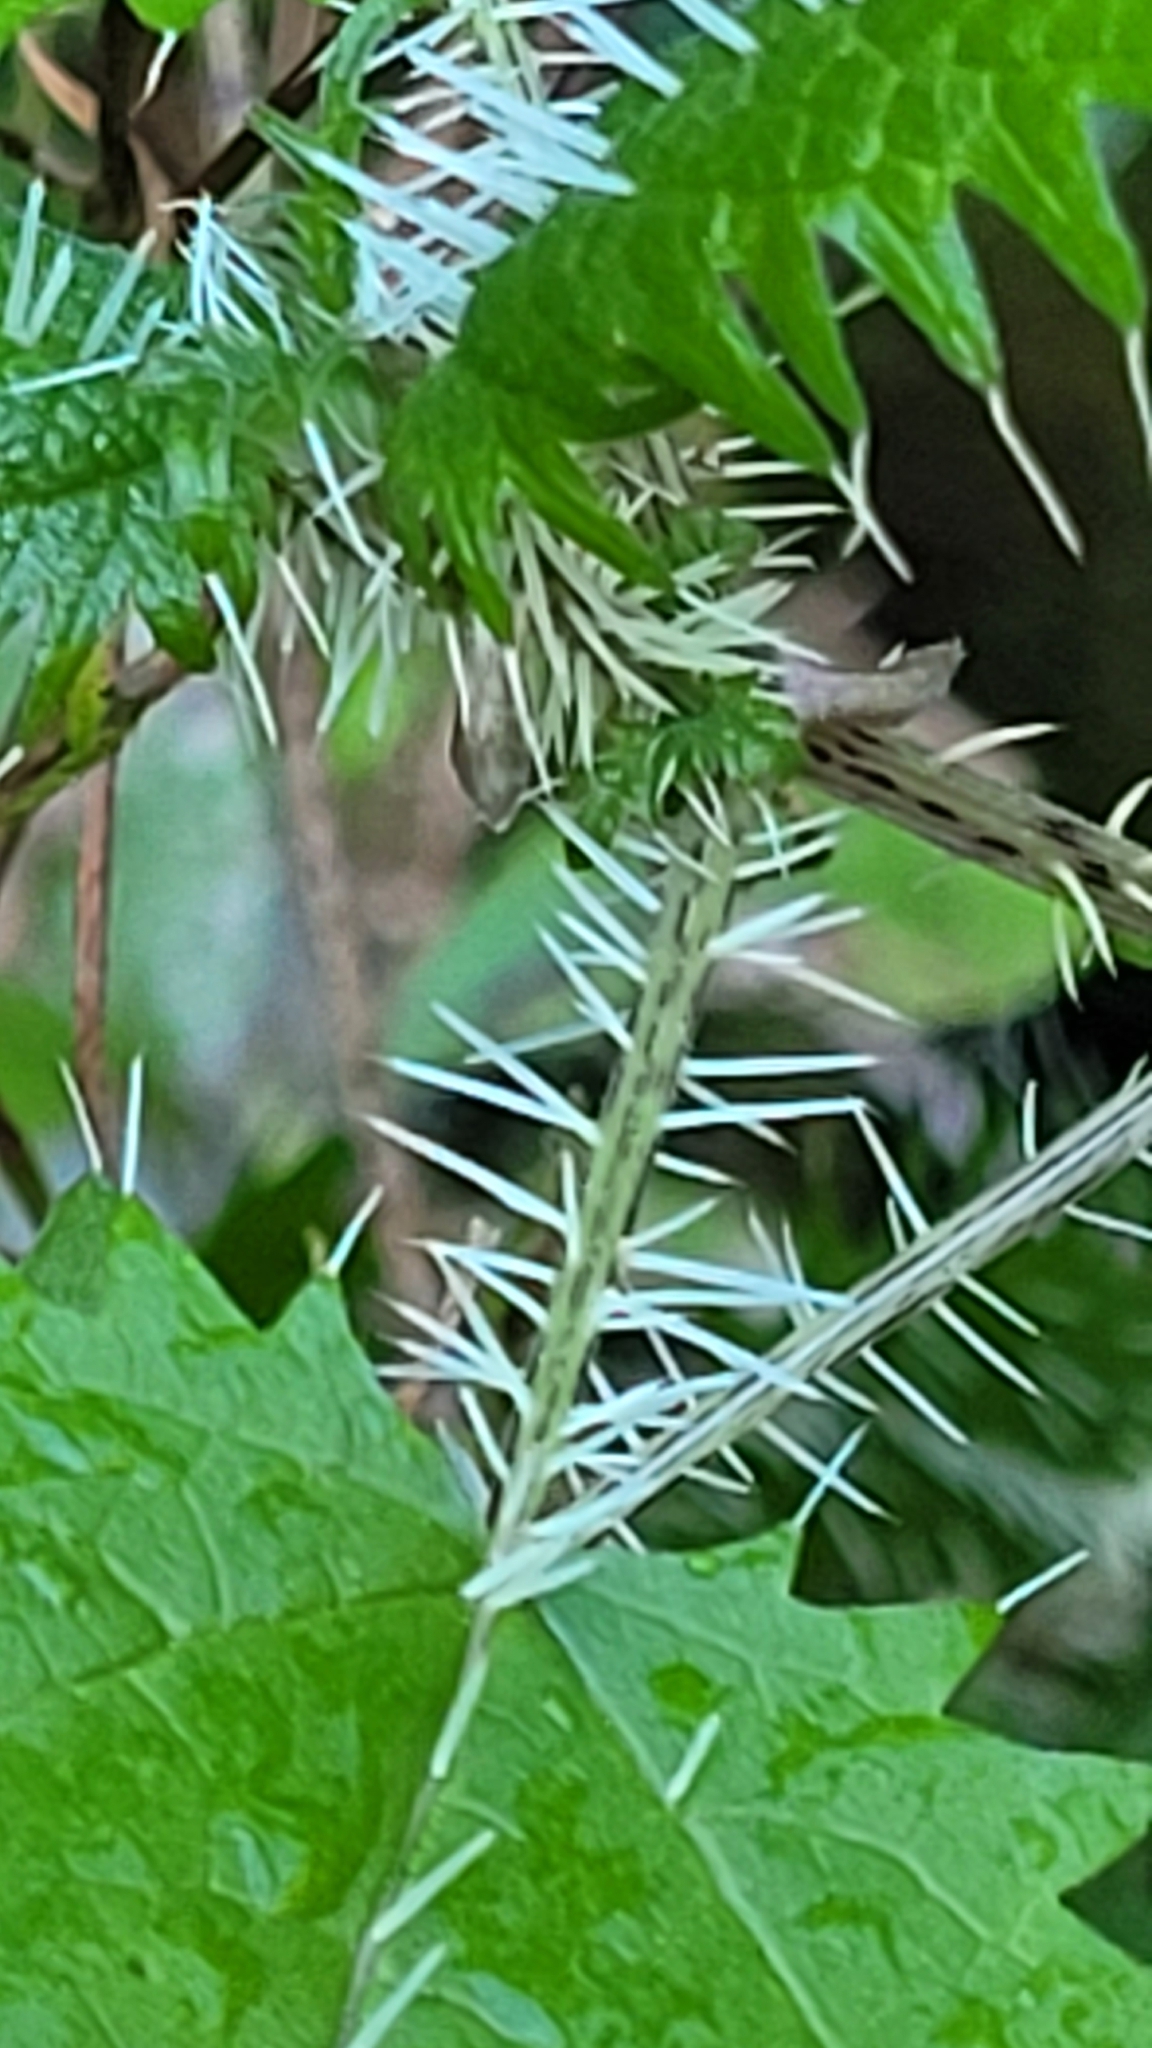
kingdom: Plantae
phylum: Tracheophyta
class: Magnoliopsida
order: Rosales
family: Urticaceae
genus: Urtica
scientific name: Urtica ferox
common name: Tree nettle
